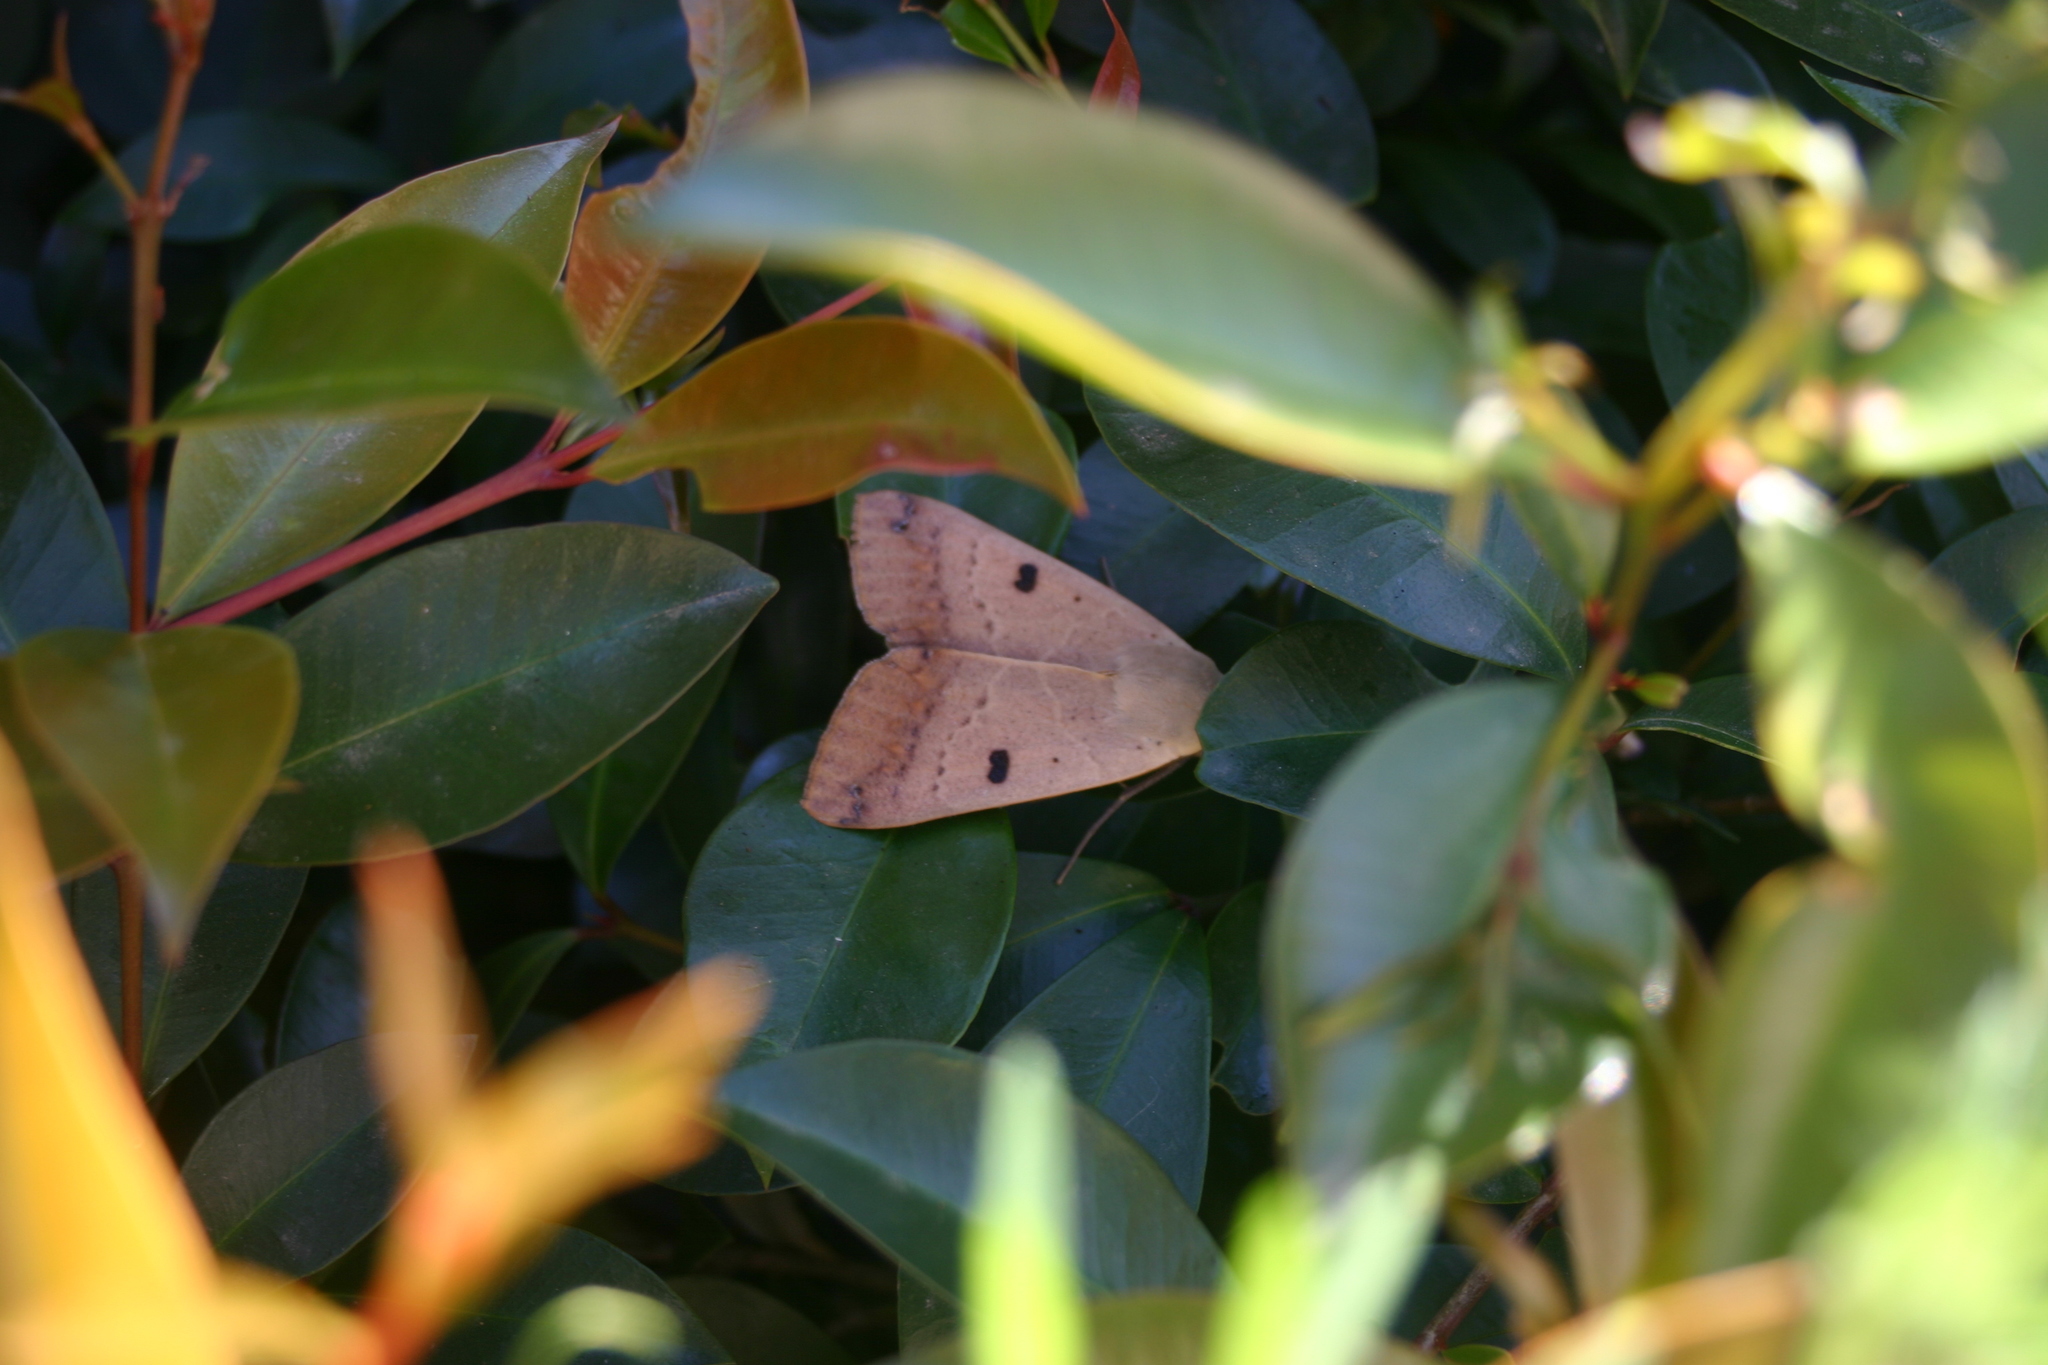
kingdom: Animalia
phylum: Arthropoda
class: Insecta
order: Lepidoptera
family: Erebidae
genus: Ophiusa
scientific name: Ophiusa disjungens
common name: Moth
